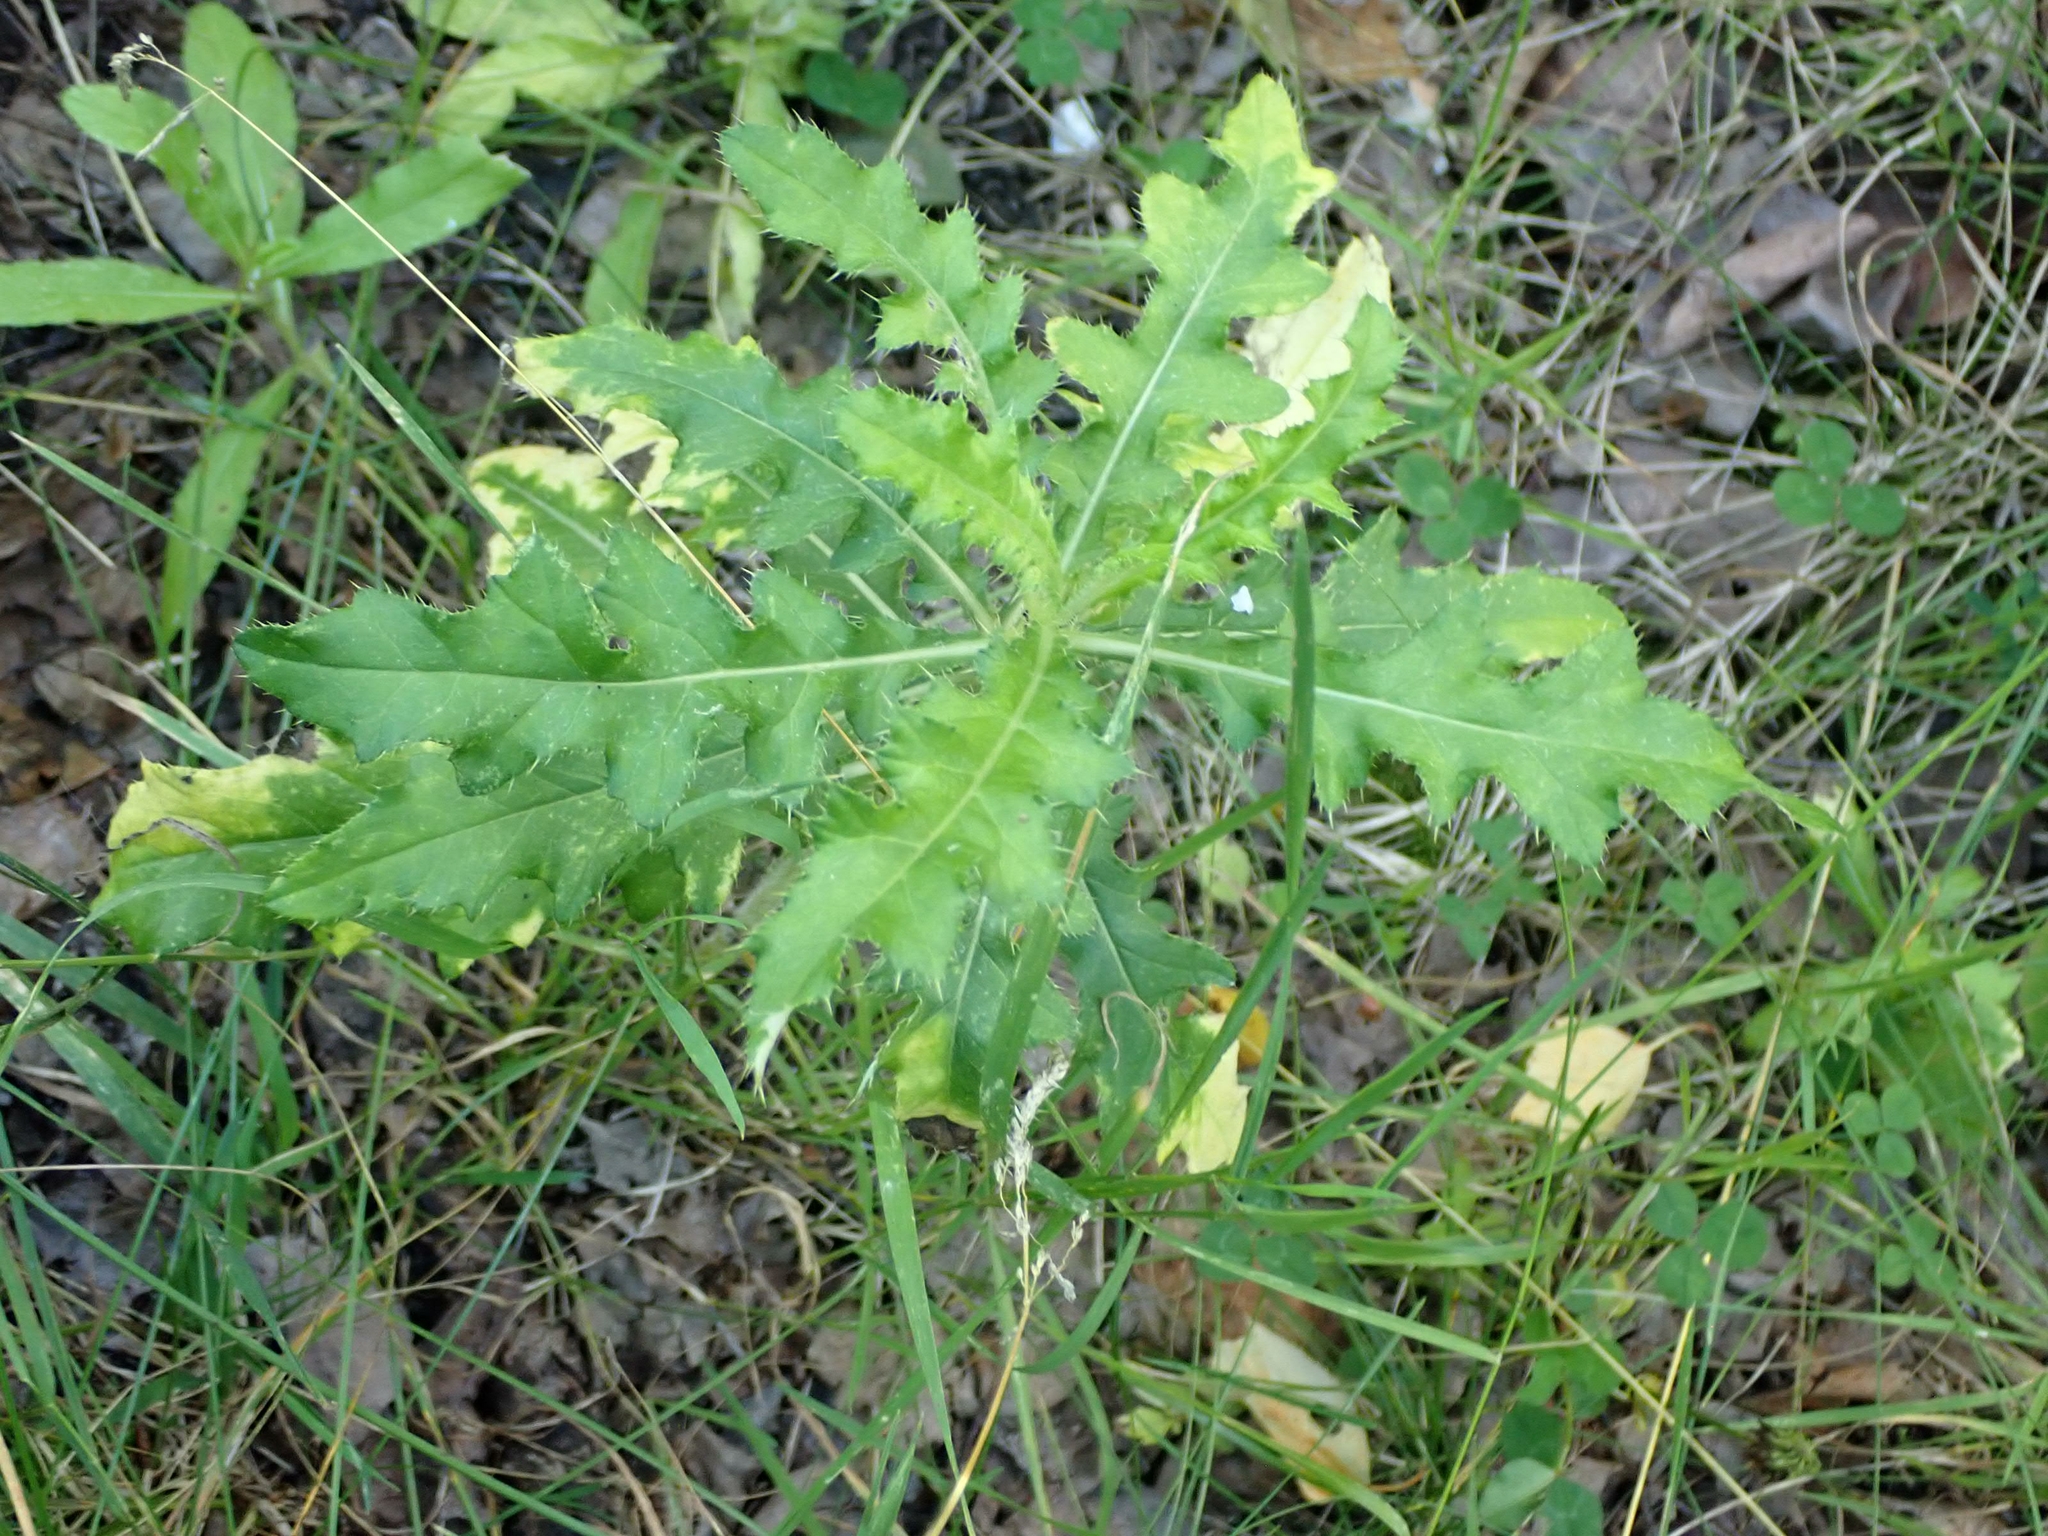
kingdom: Plantae
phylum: Tracheophyta
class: Magnoliopsida
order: Asterales
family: Asteraceae
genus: Cirsium
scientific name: Cirsium arvense
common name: Creeping thistle
